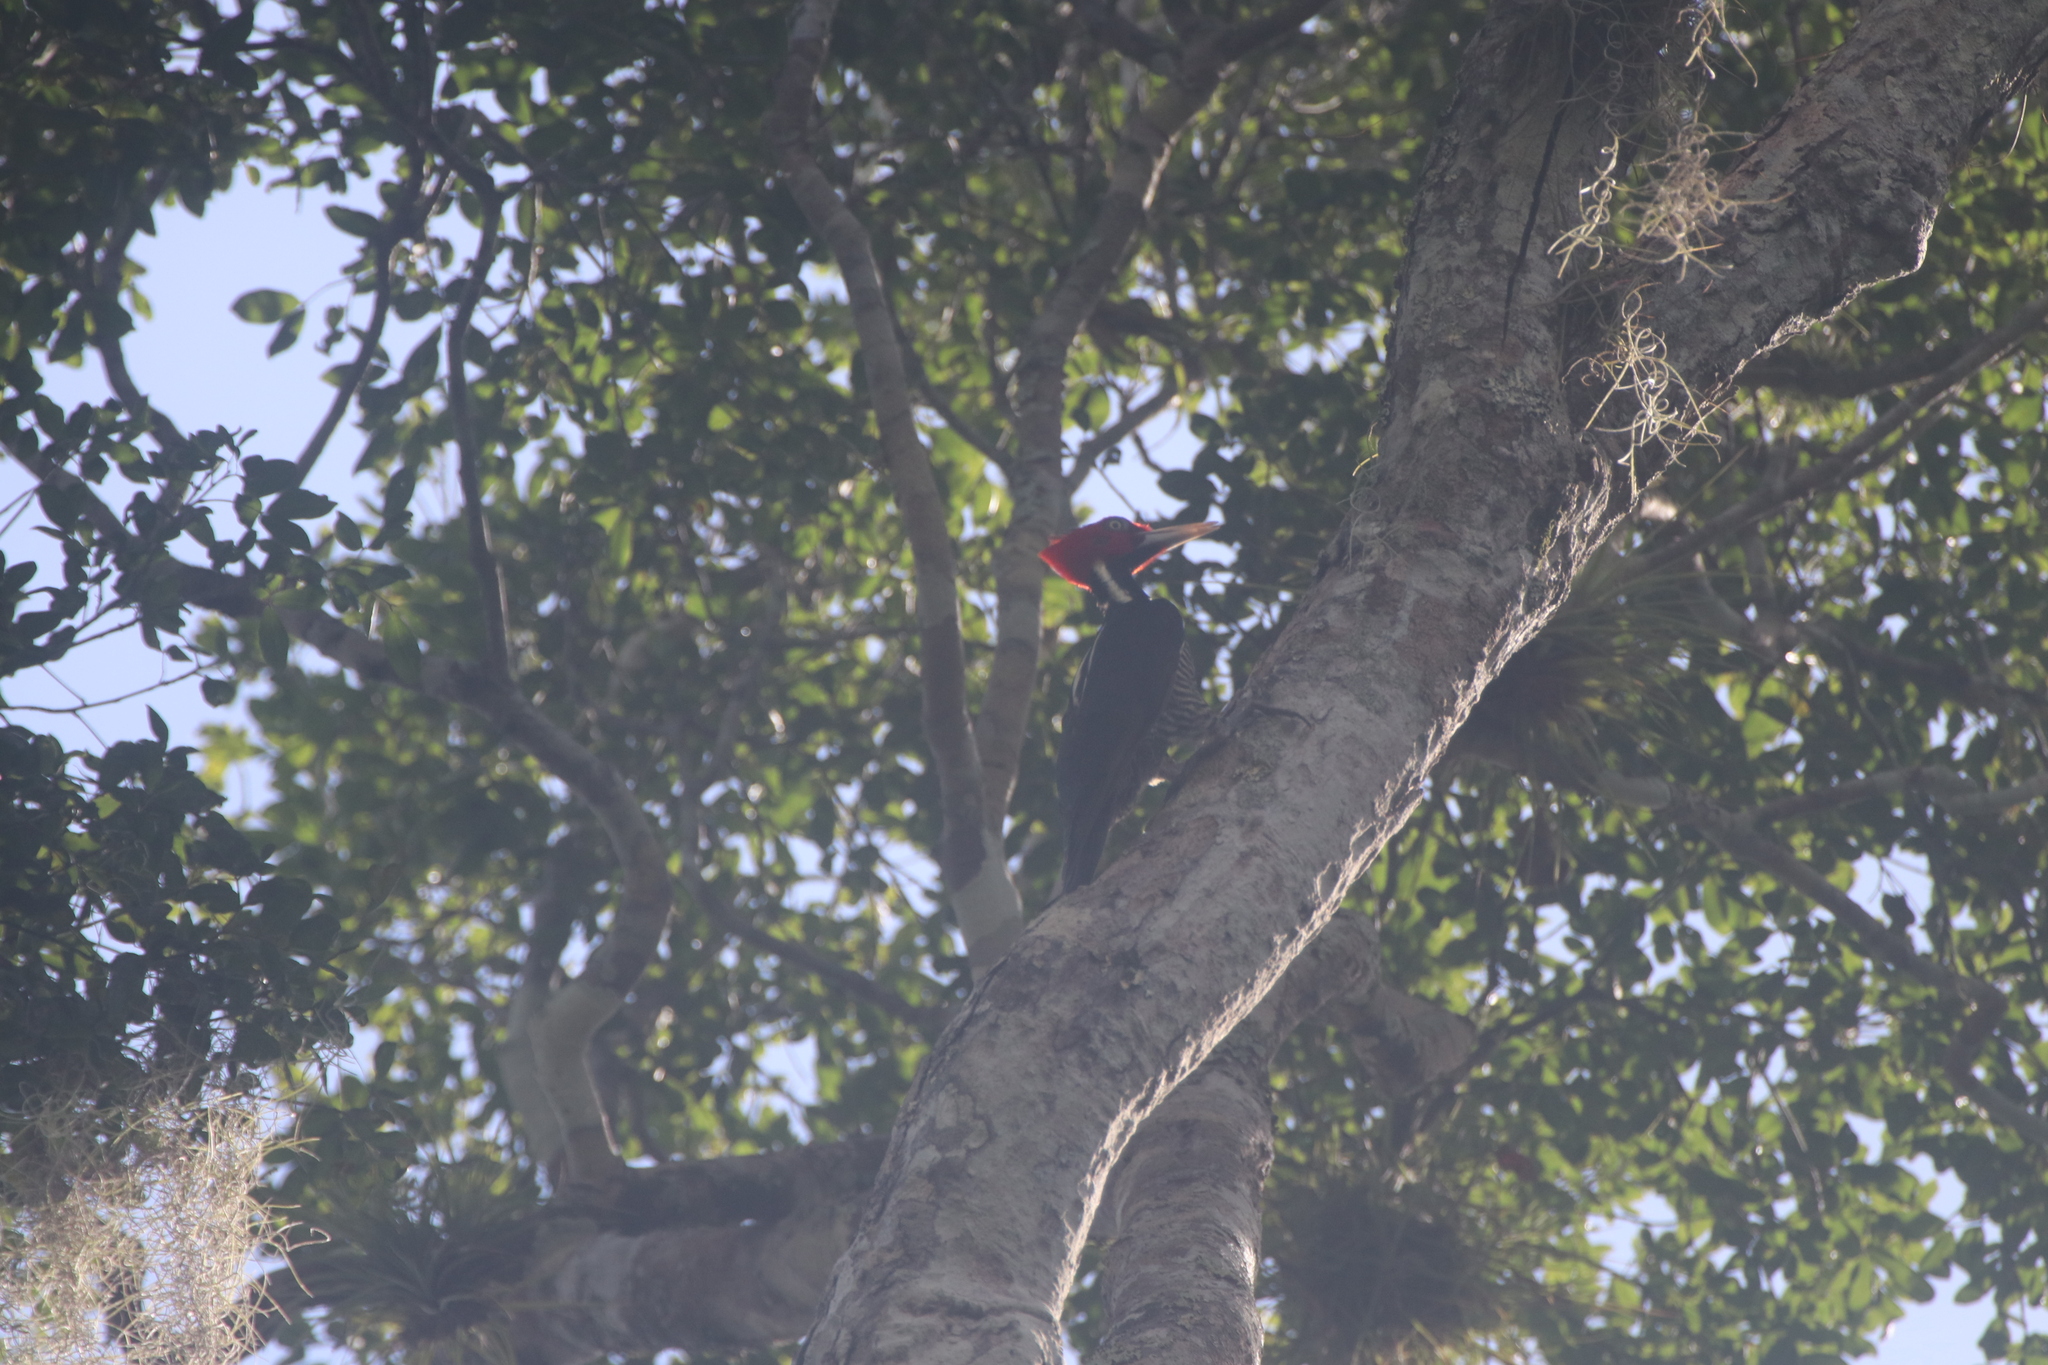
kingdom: Animalia
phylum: Chordata
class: Aves
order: Piciformes
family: Picidae
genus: Campephilus
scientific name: Campephilus guatemalensis
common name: Pale-billed woodpecker
